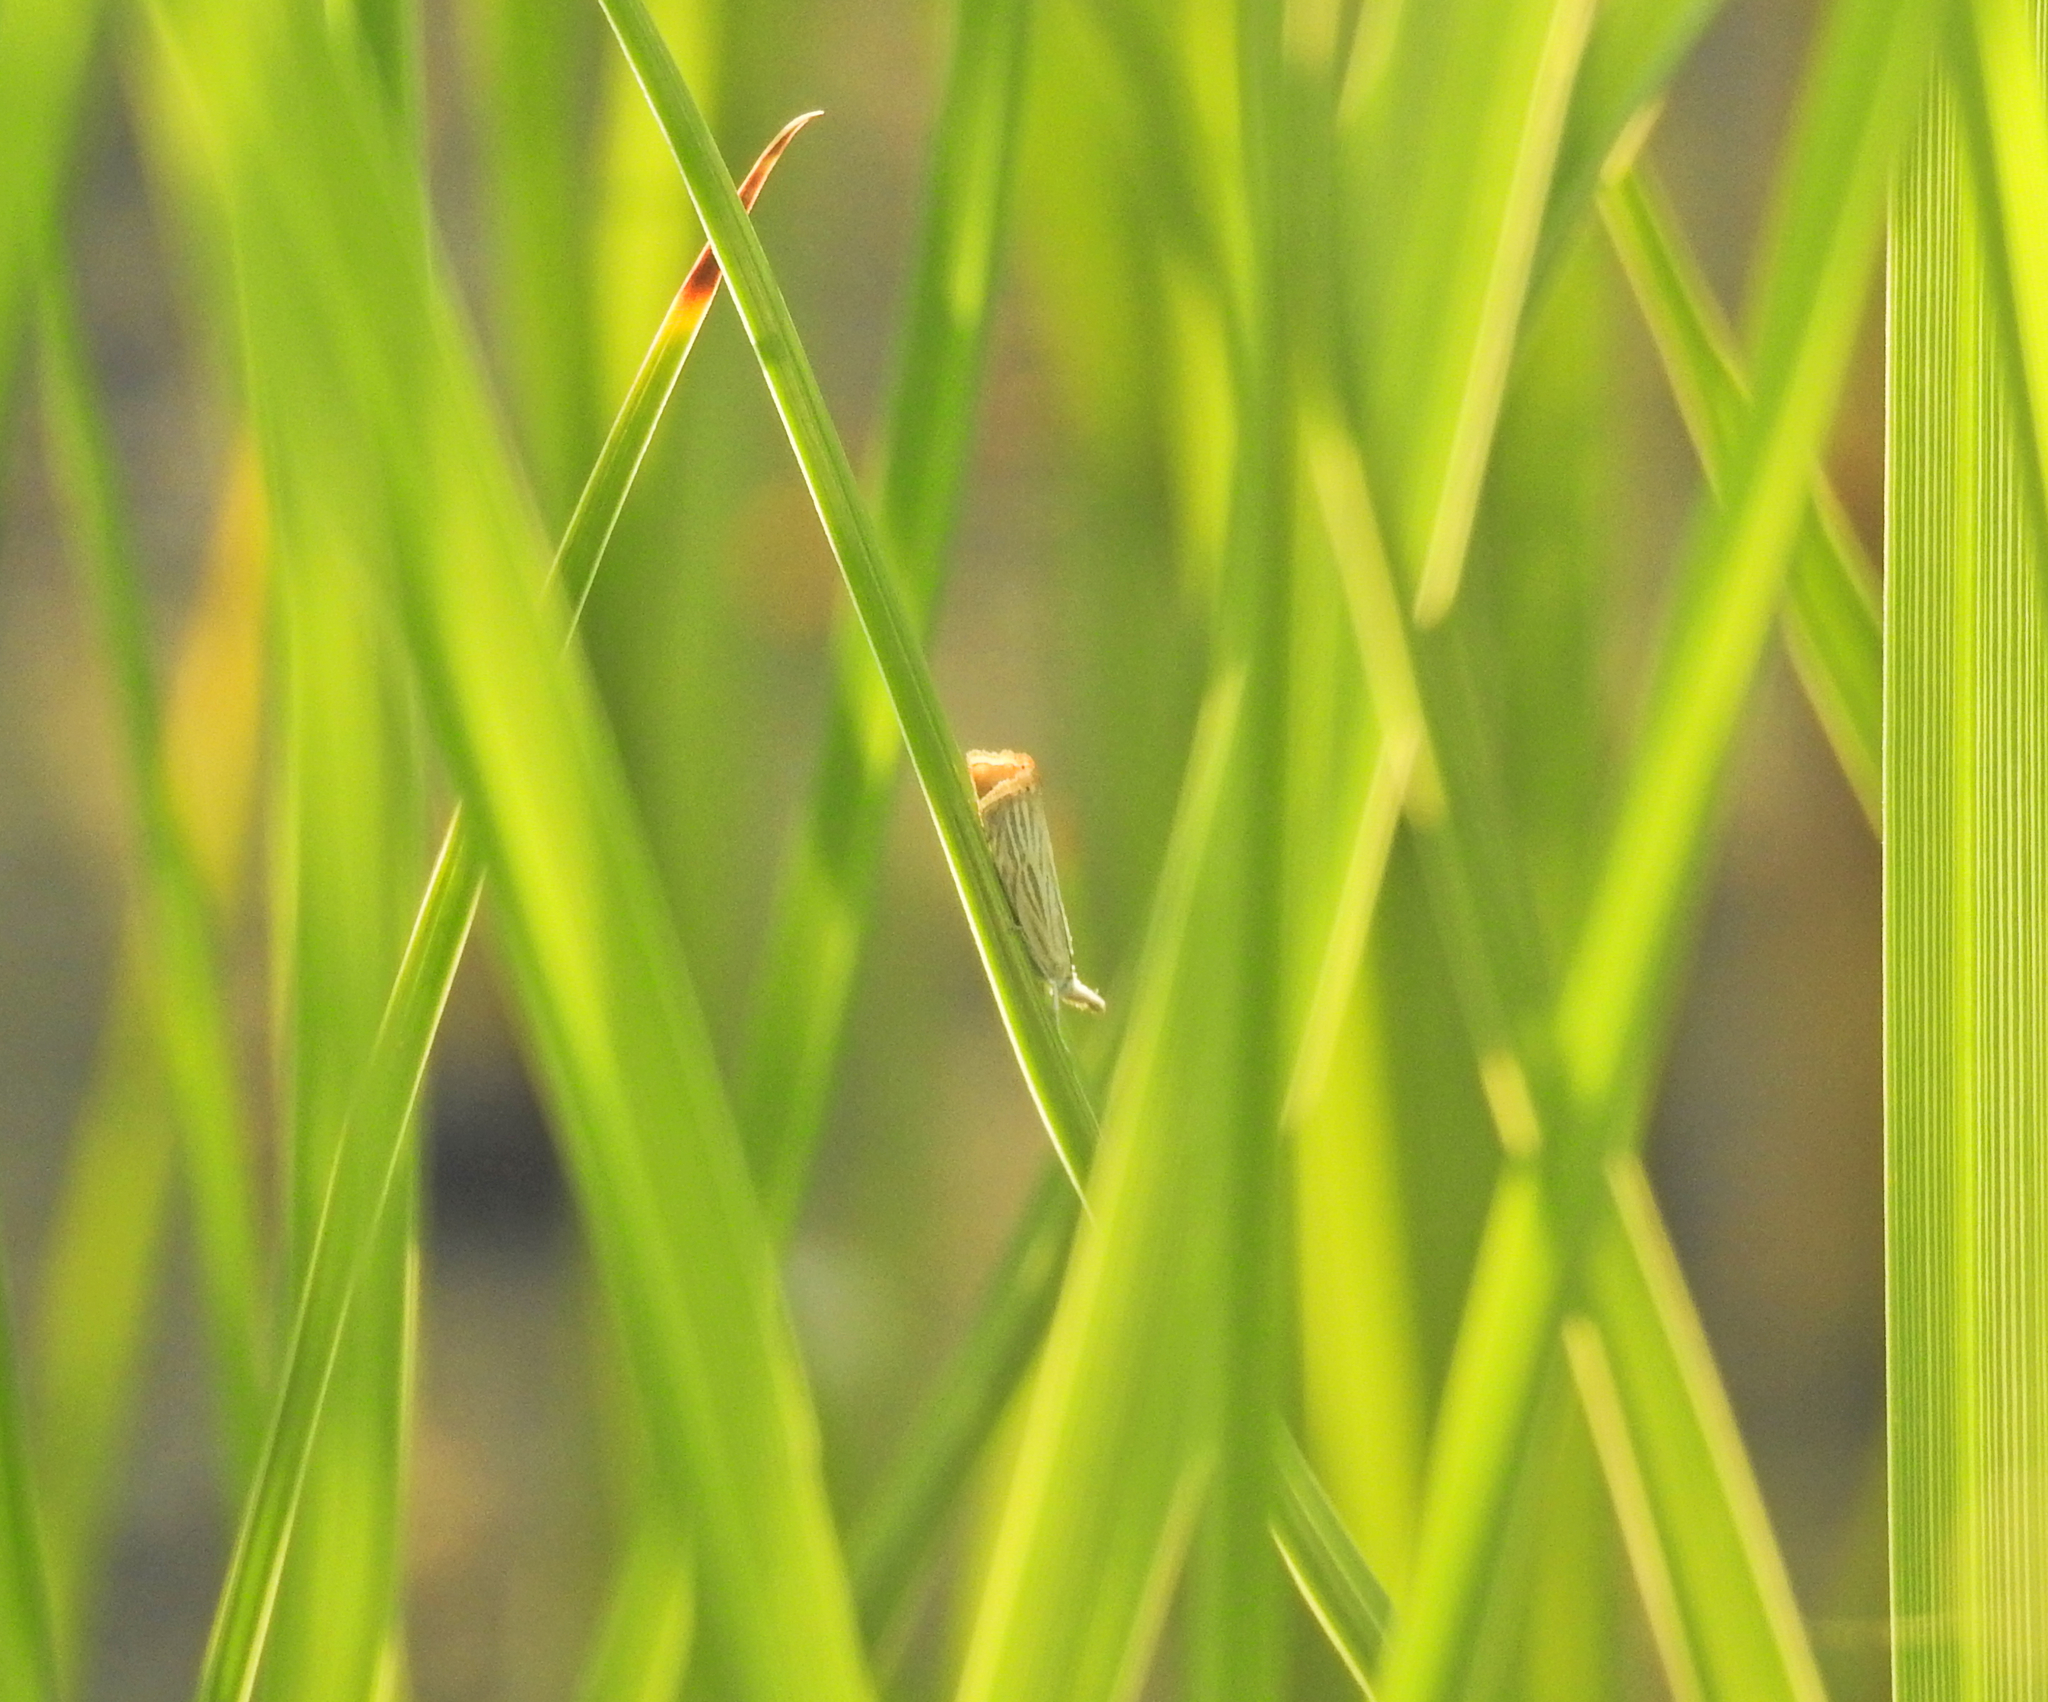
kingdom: Animalia
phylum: Arthropoda
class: Insecta
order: Lepidoptera
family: Crambidae
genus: Chrysoteuchia
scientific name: Chrysoteuchia culmella
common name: Garden grass-veneer
